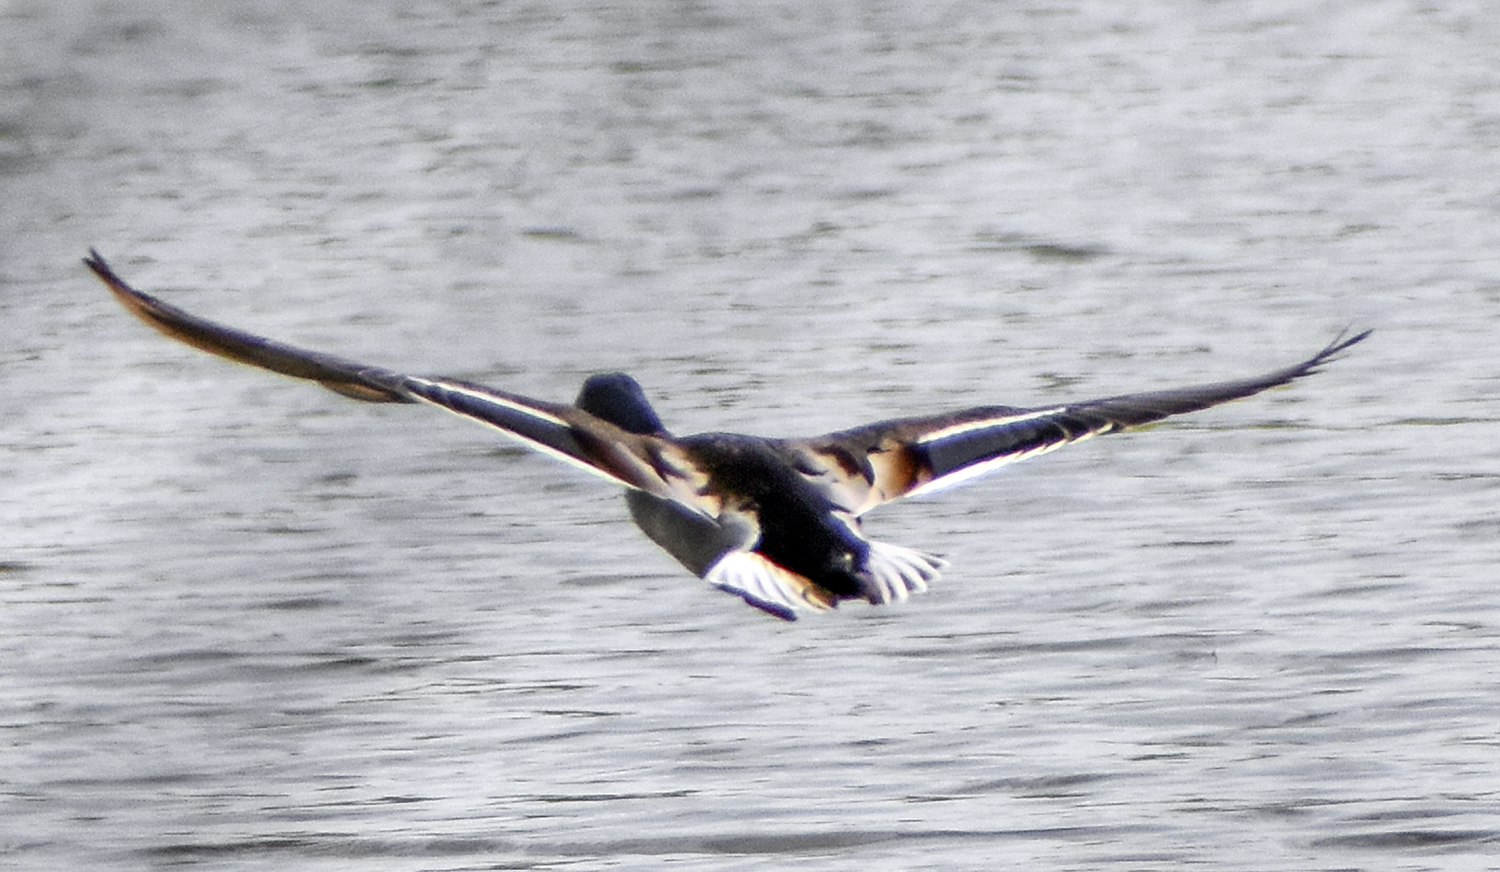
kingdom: Animalia
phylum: Chordata
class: Aves
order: Anseriformes
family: Anatidae
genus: Anas
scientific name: Anas platyrhynchos
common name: Mallard
